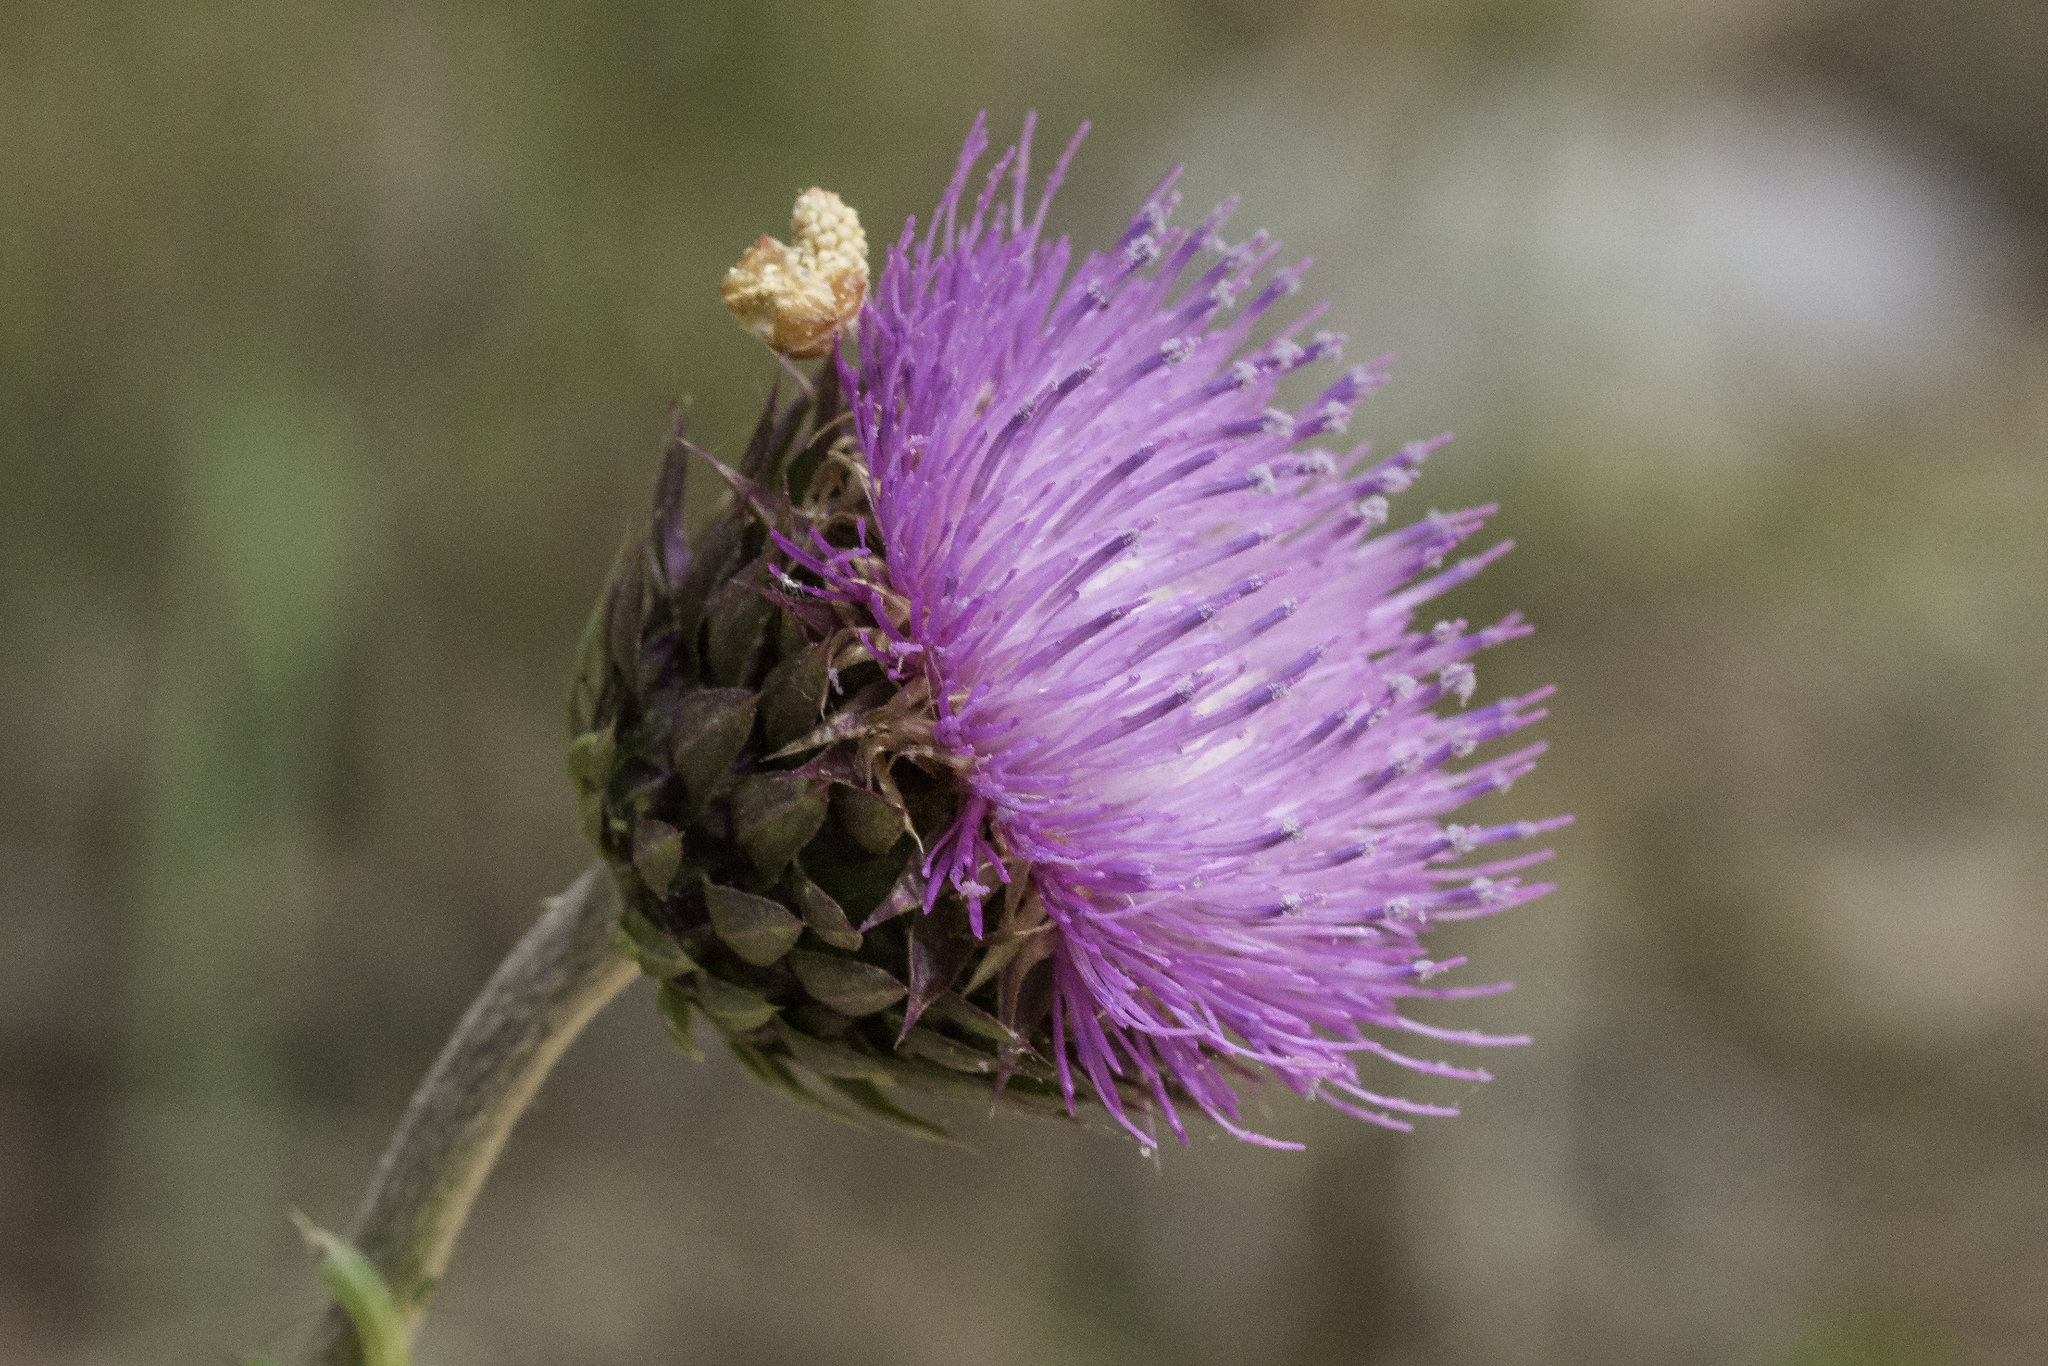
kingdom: Plantae
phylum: Tracheophyta
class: Magnoliopsida
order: Asterales
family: Asteraceae
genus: Carduus
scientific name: Carduus nutans
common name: Musk thistle
